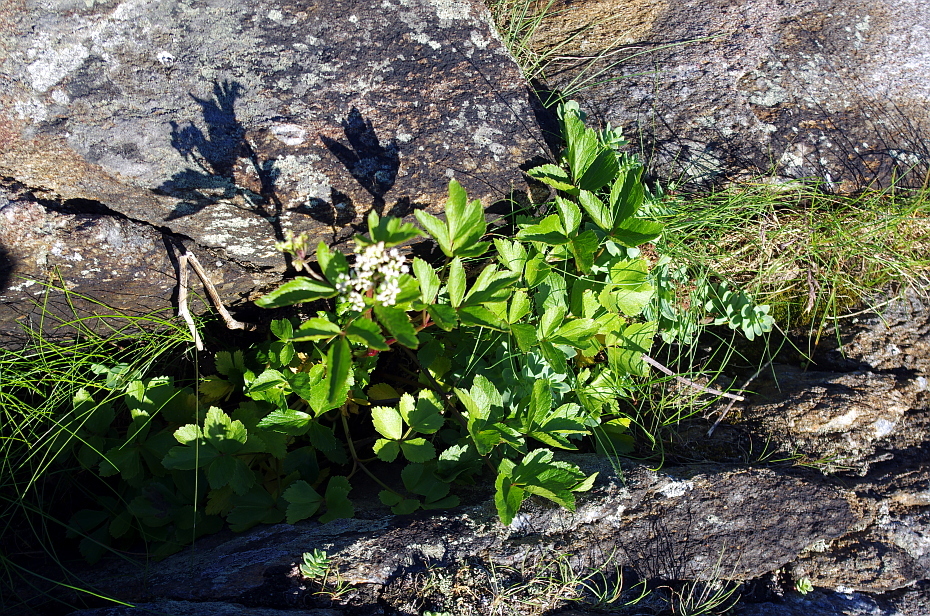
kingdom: Plantae
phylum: Tracheophyta
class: Magnoliopsida
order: Apiales
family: Apiaceae
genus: Ligusticum
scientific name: Ligusticum scothicum
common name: Beach lovage
